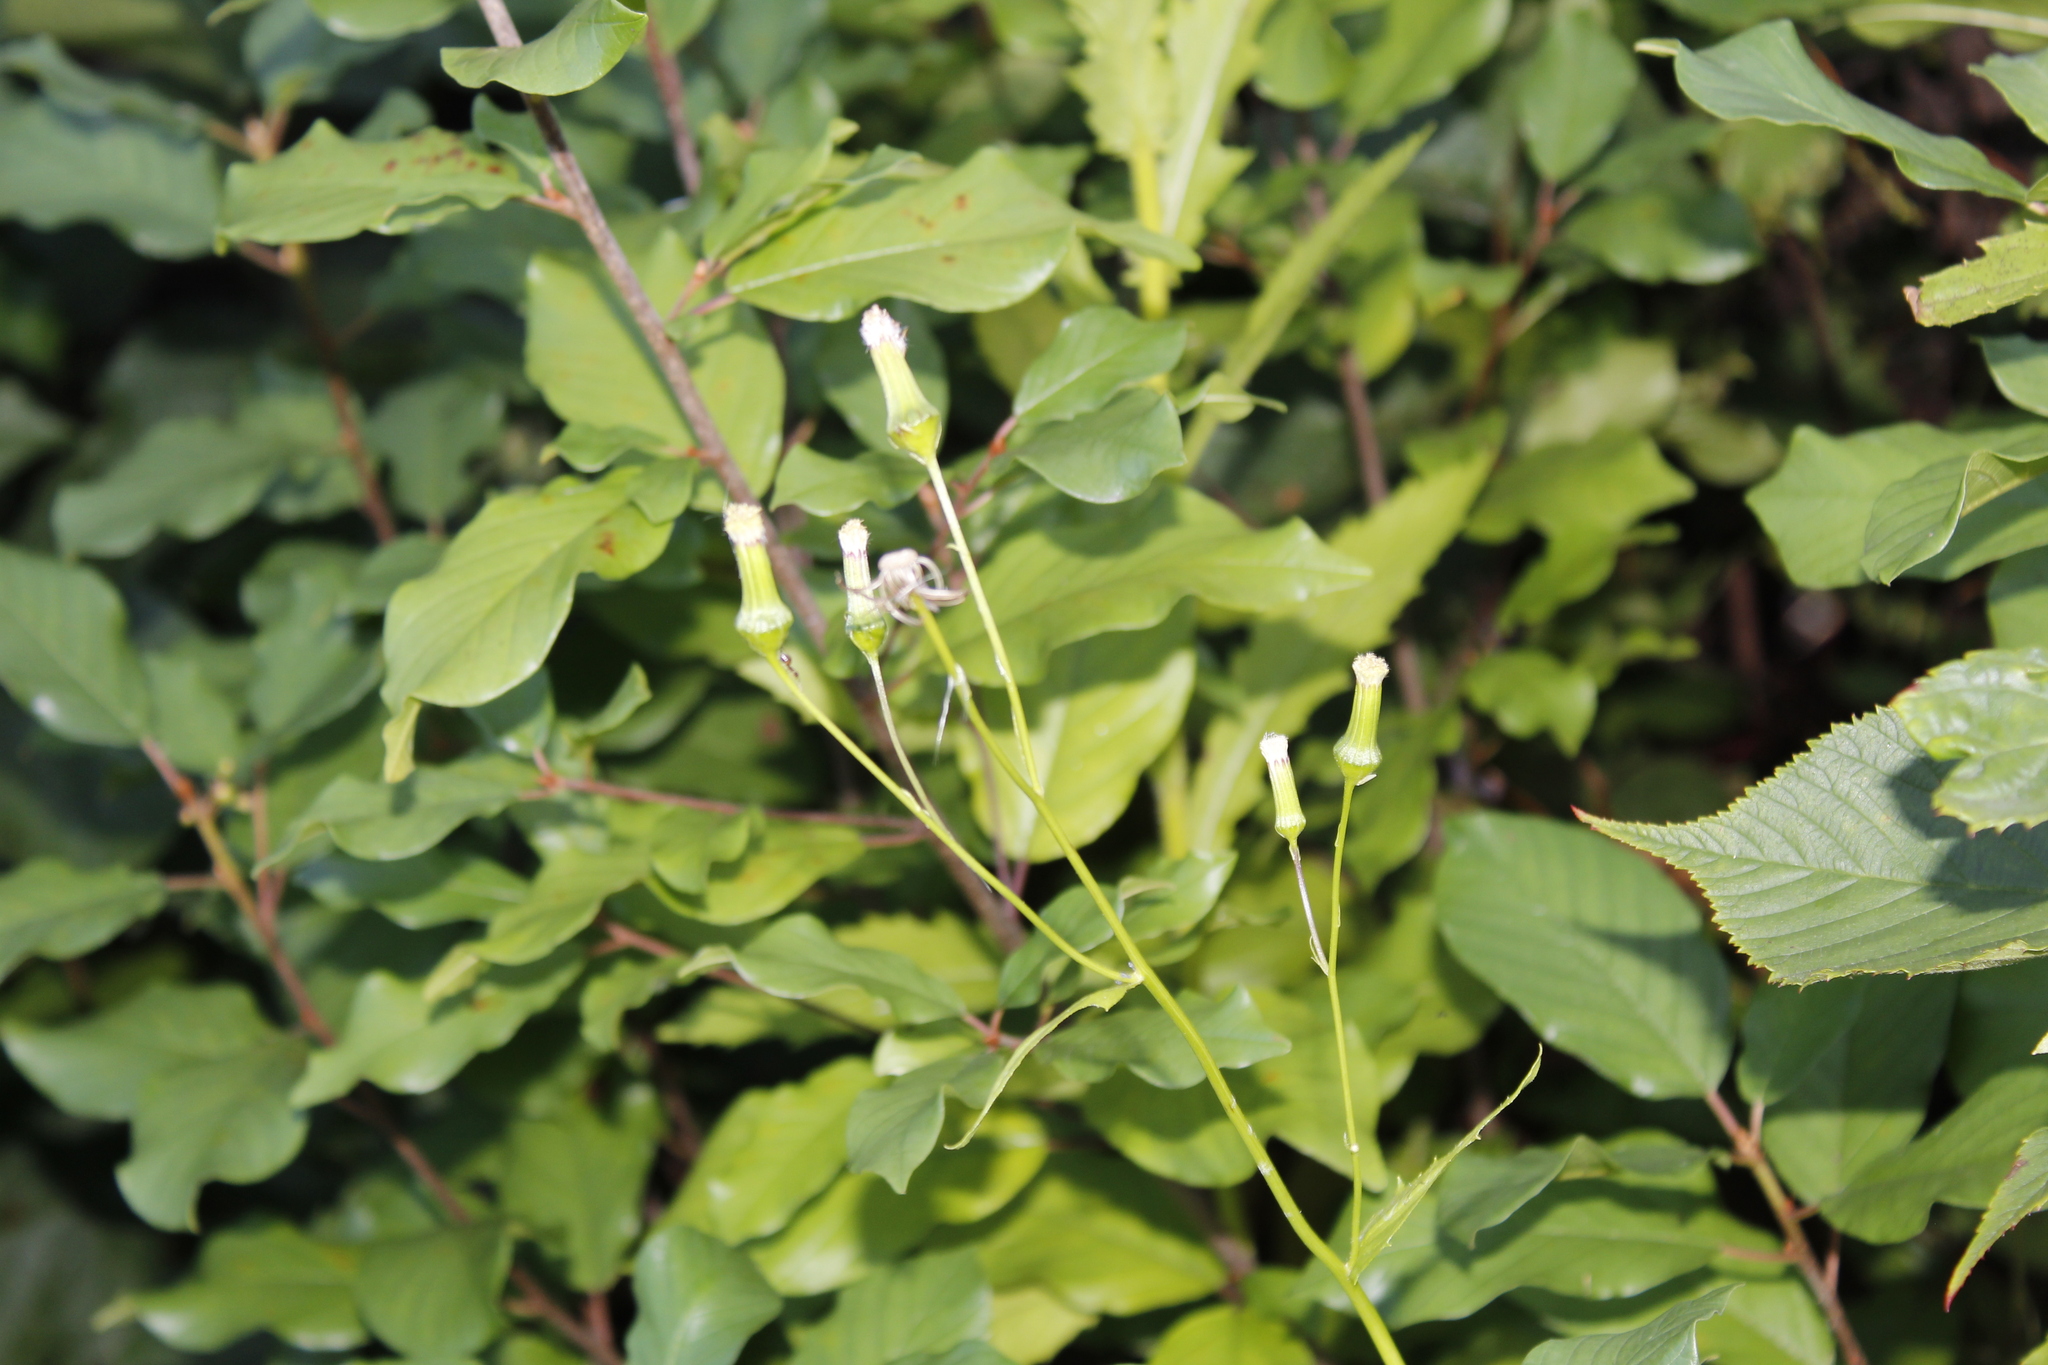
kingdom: Plantae
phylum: Tracheophyta
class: Magnoliopsida
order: Asterales
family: Asteraceae
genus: Erechtites
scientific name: Erechtites hieraciifolius
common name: American burnweed
